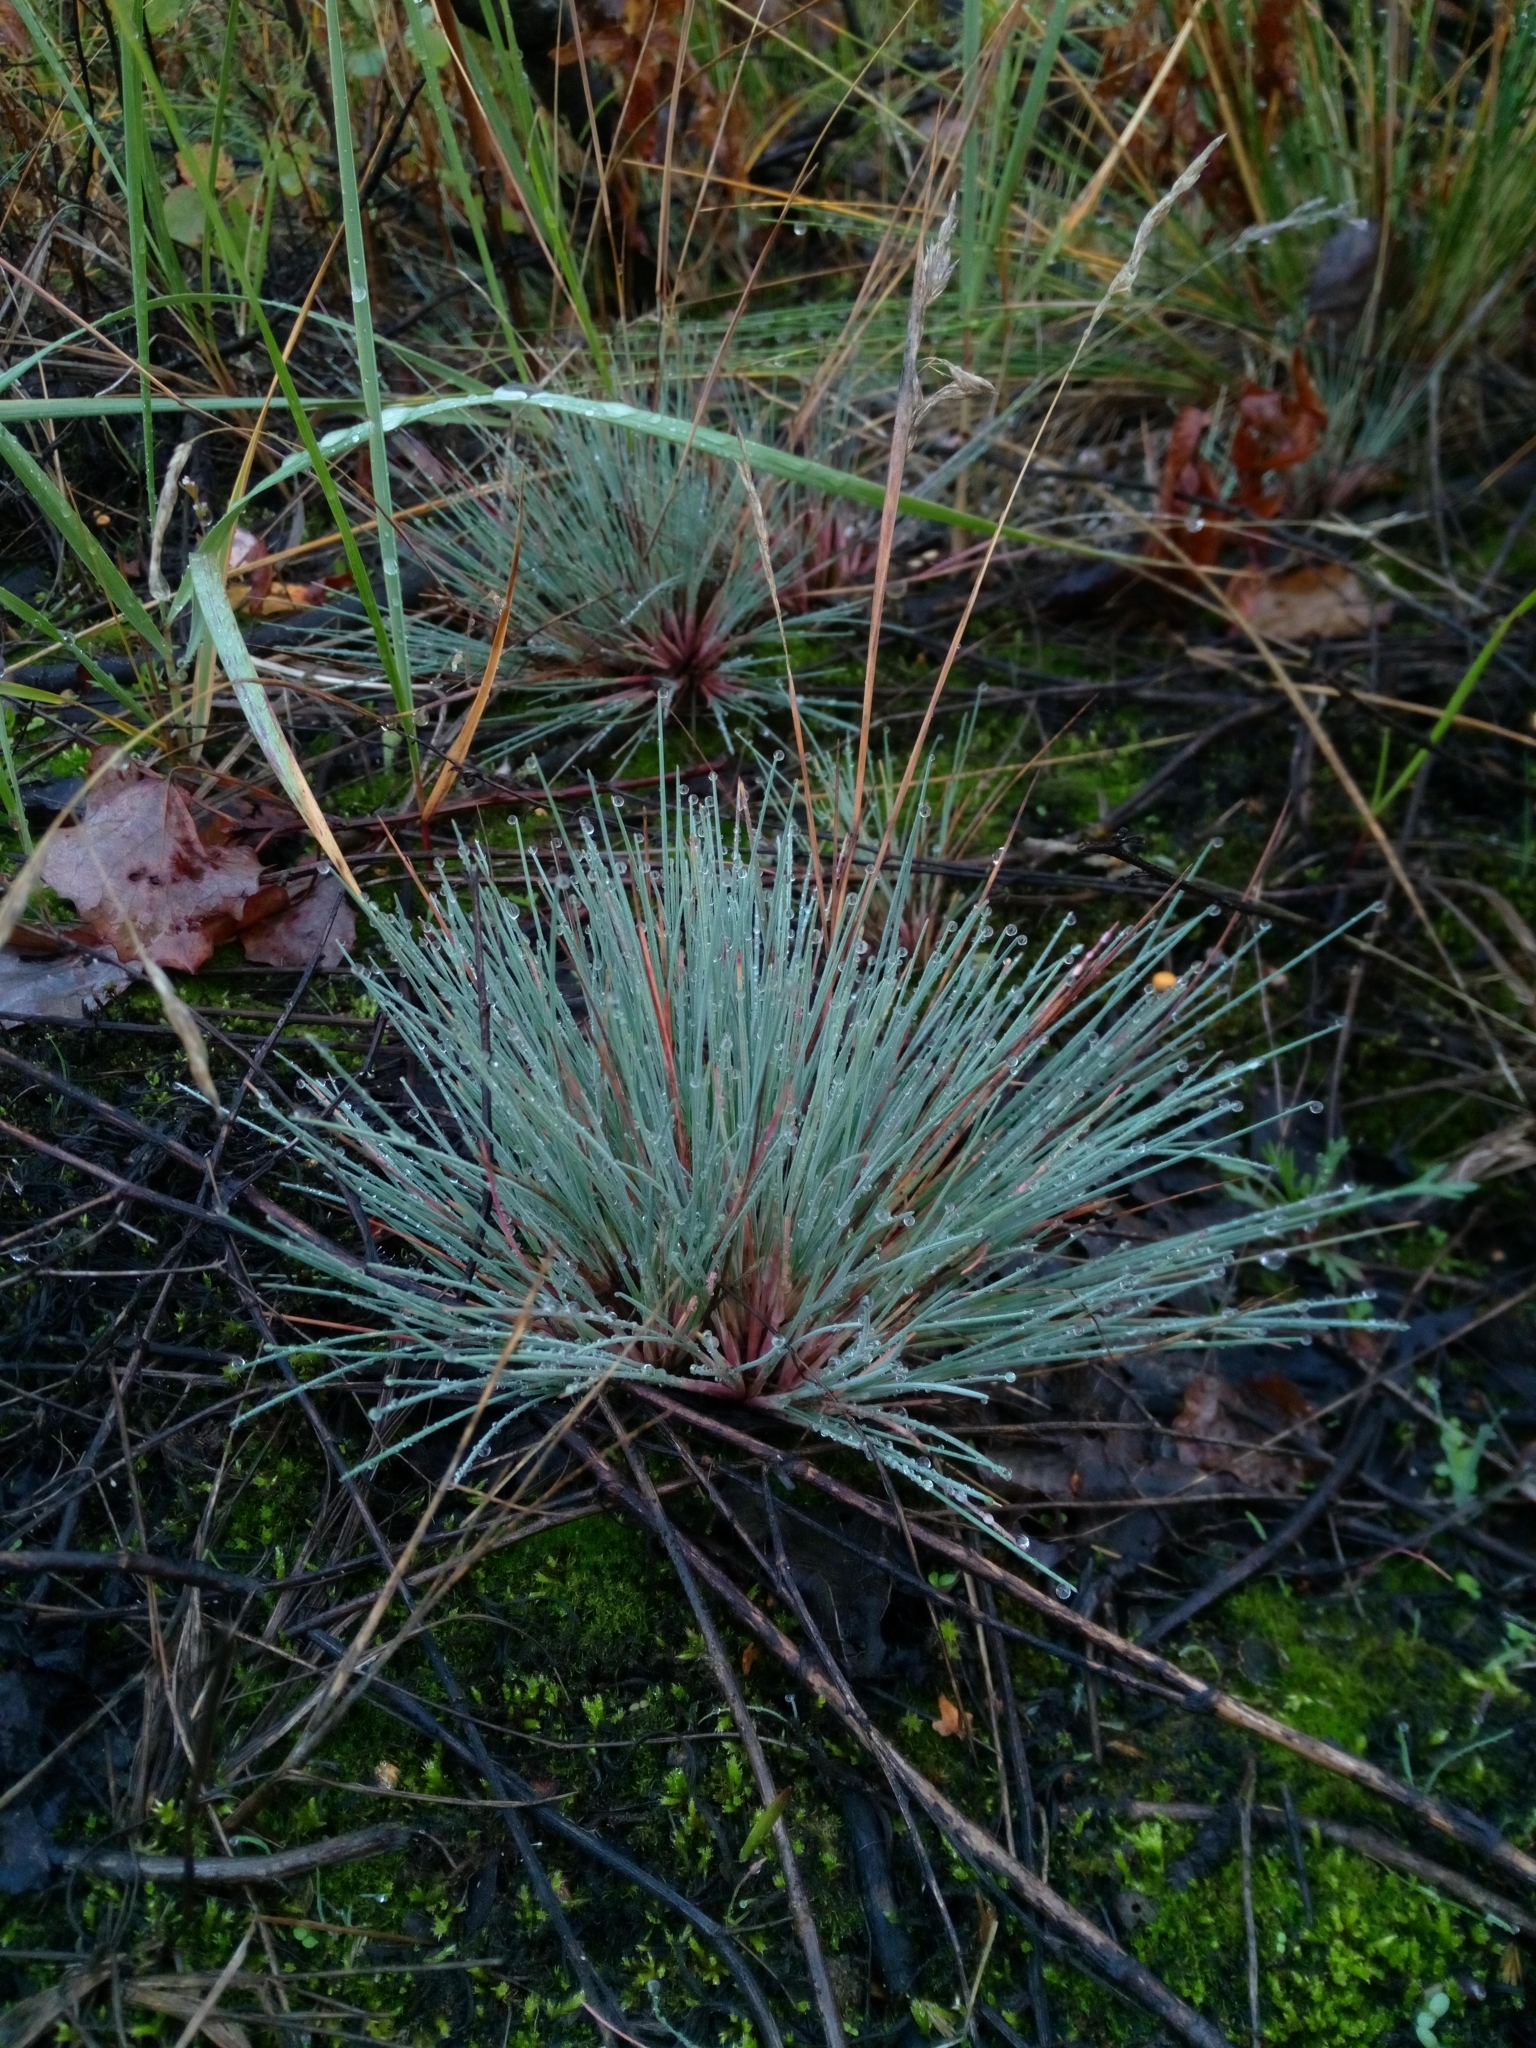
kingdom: Plantae
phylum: Tracheophyta
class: Liliopsida
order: Poales
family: Poaceae
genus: Corynephorus
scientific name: Corynephorus canescens
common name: Grey hair-grass
